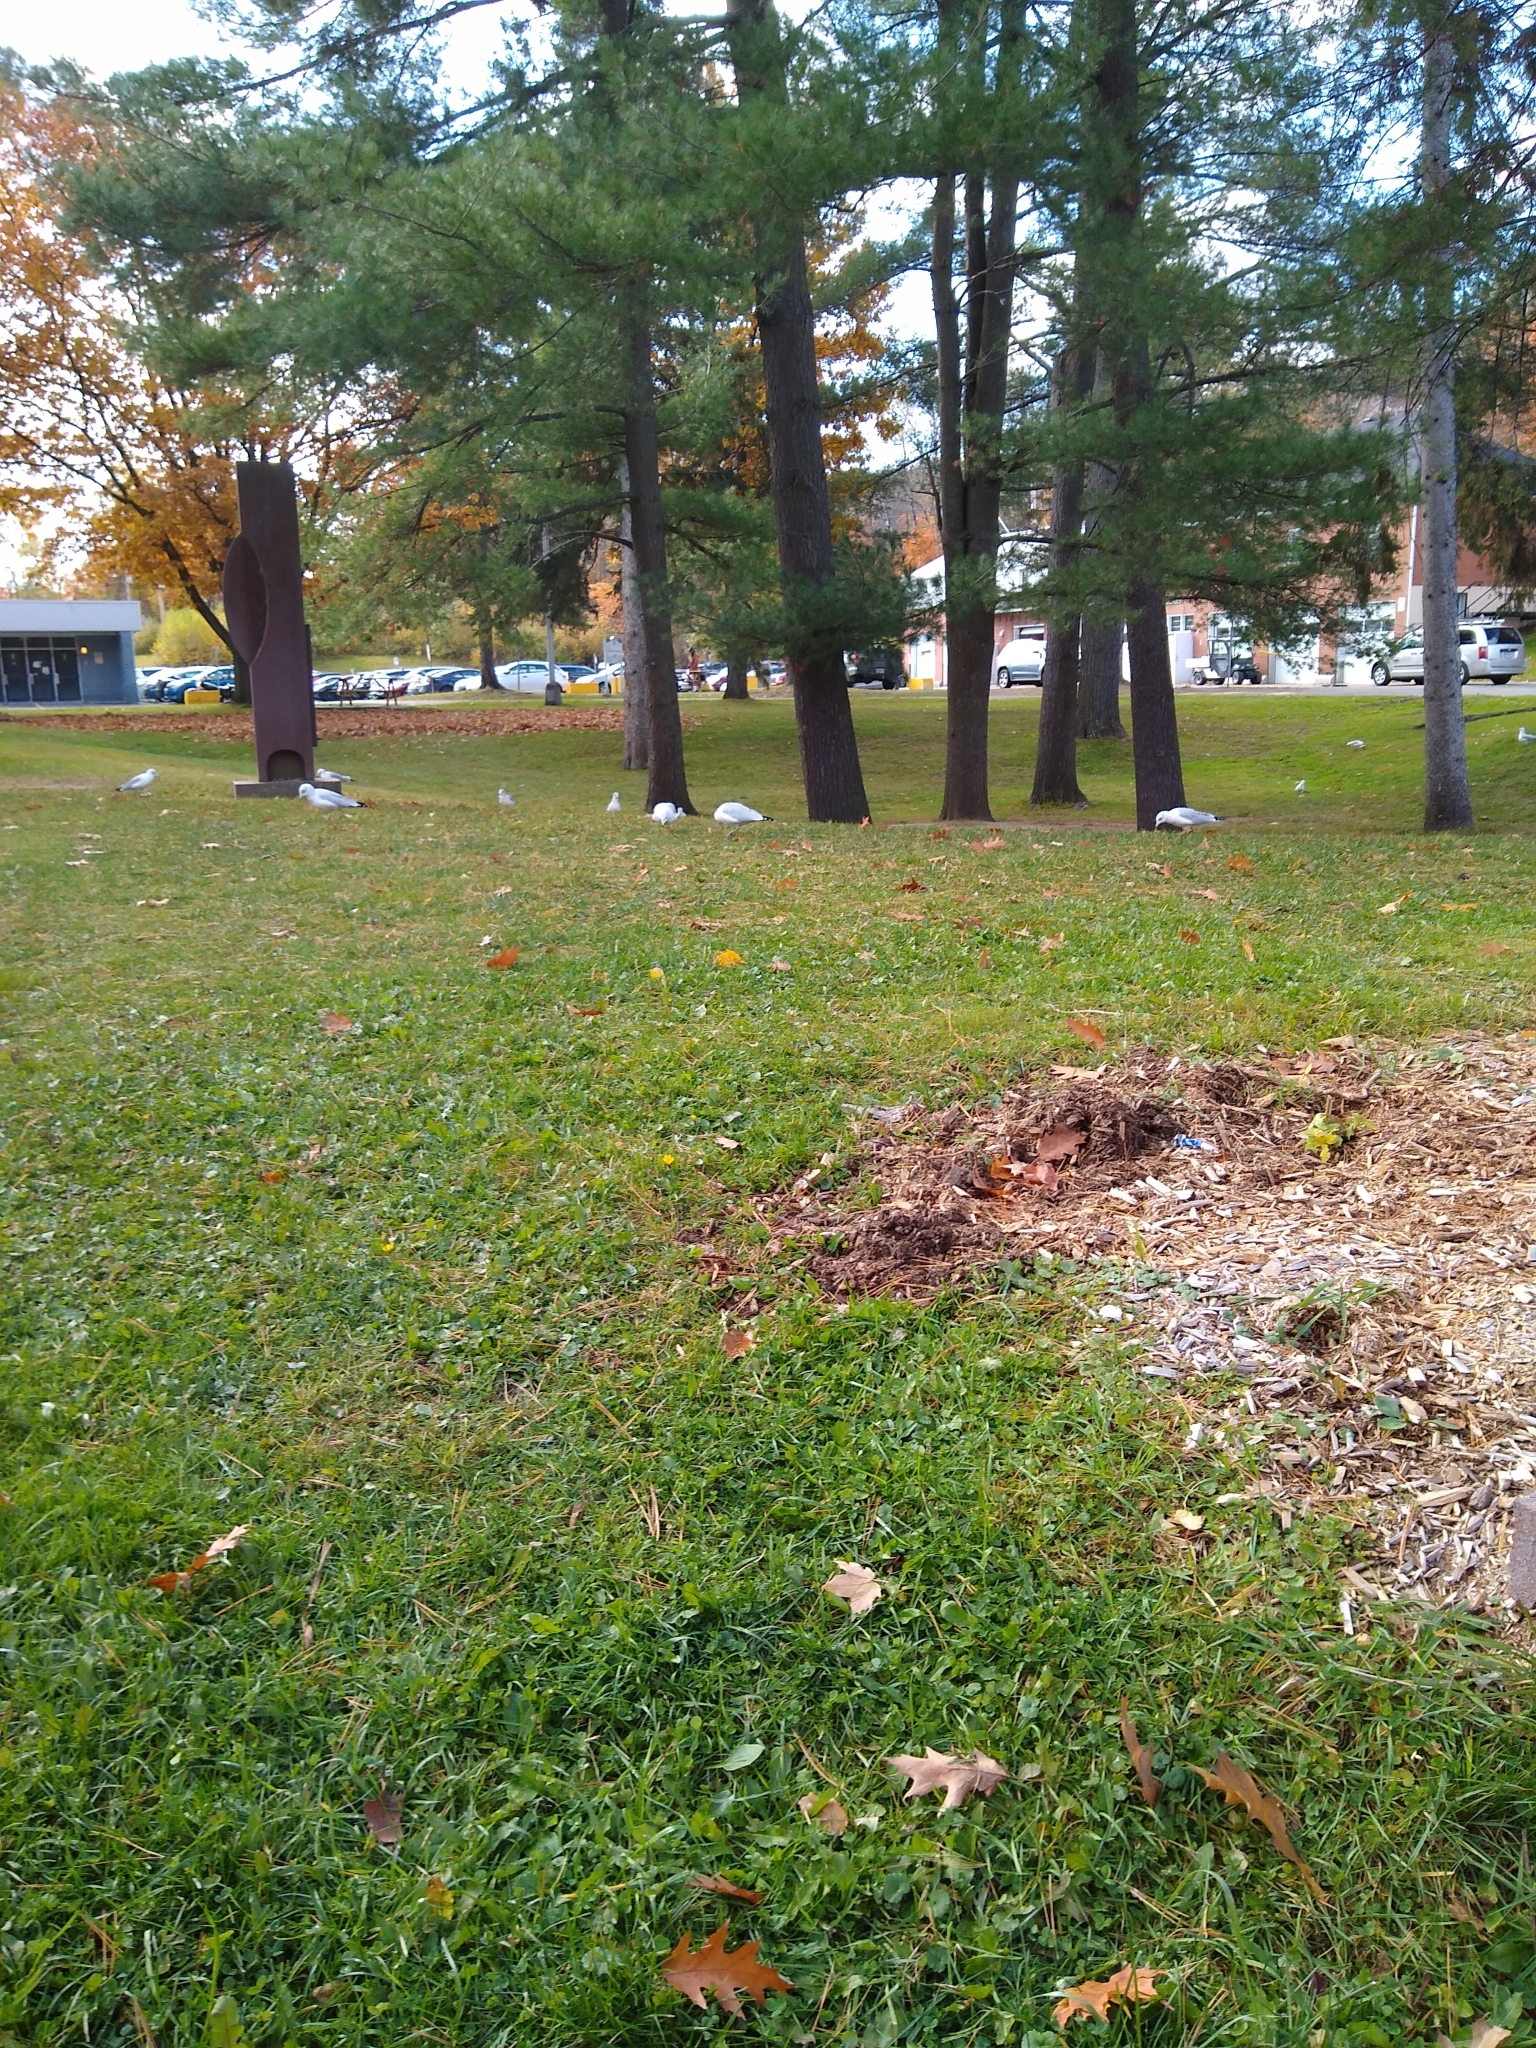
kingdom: Animalia
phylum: Chordata
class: Aves
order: Charadriiformes
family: Laridae
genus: Larus
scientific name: Larus delawarensis
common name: Ring-billed gull
